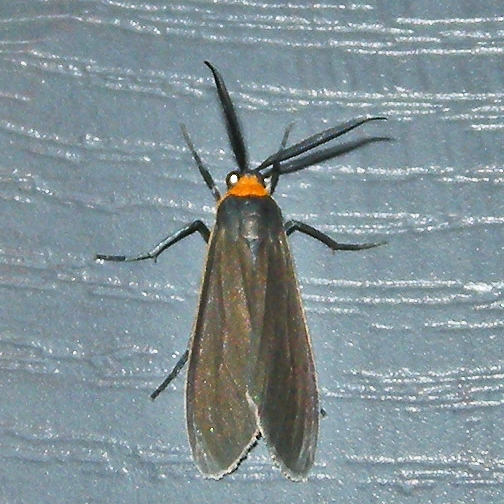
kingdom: Animalia
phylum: Arthropoda
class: Insecta
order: Lepidoptera
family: Erebidae
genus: Cisseps
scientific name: Cisseps fulvicollis
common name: Yellow-collared scape moth
